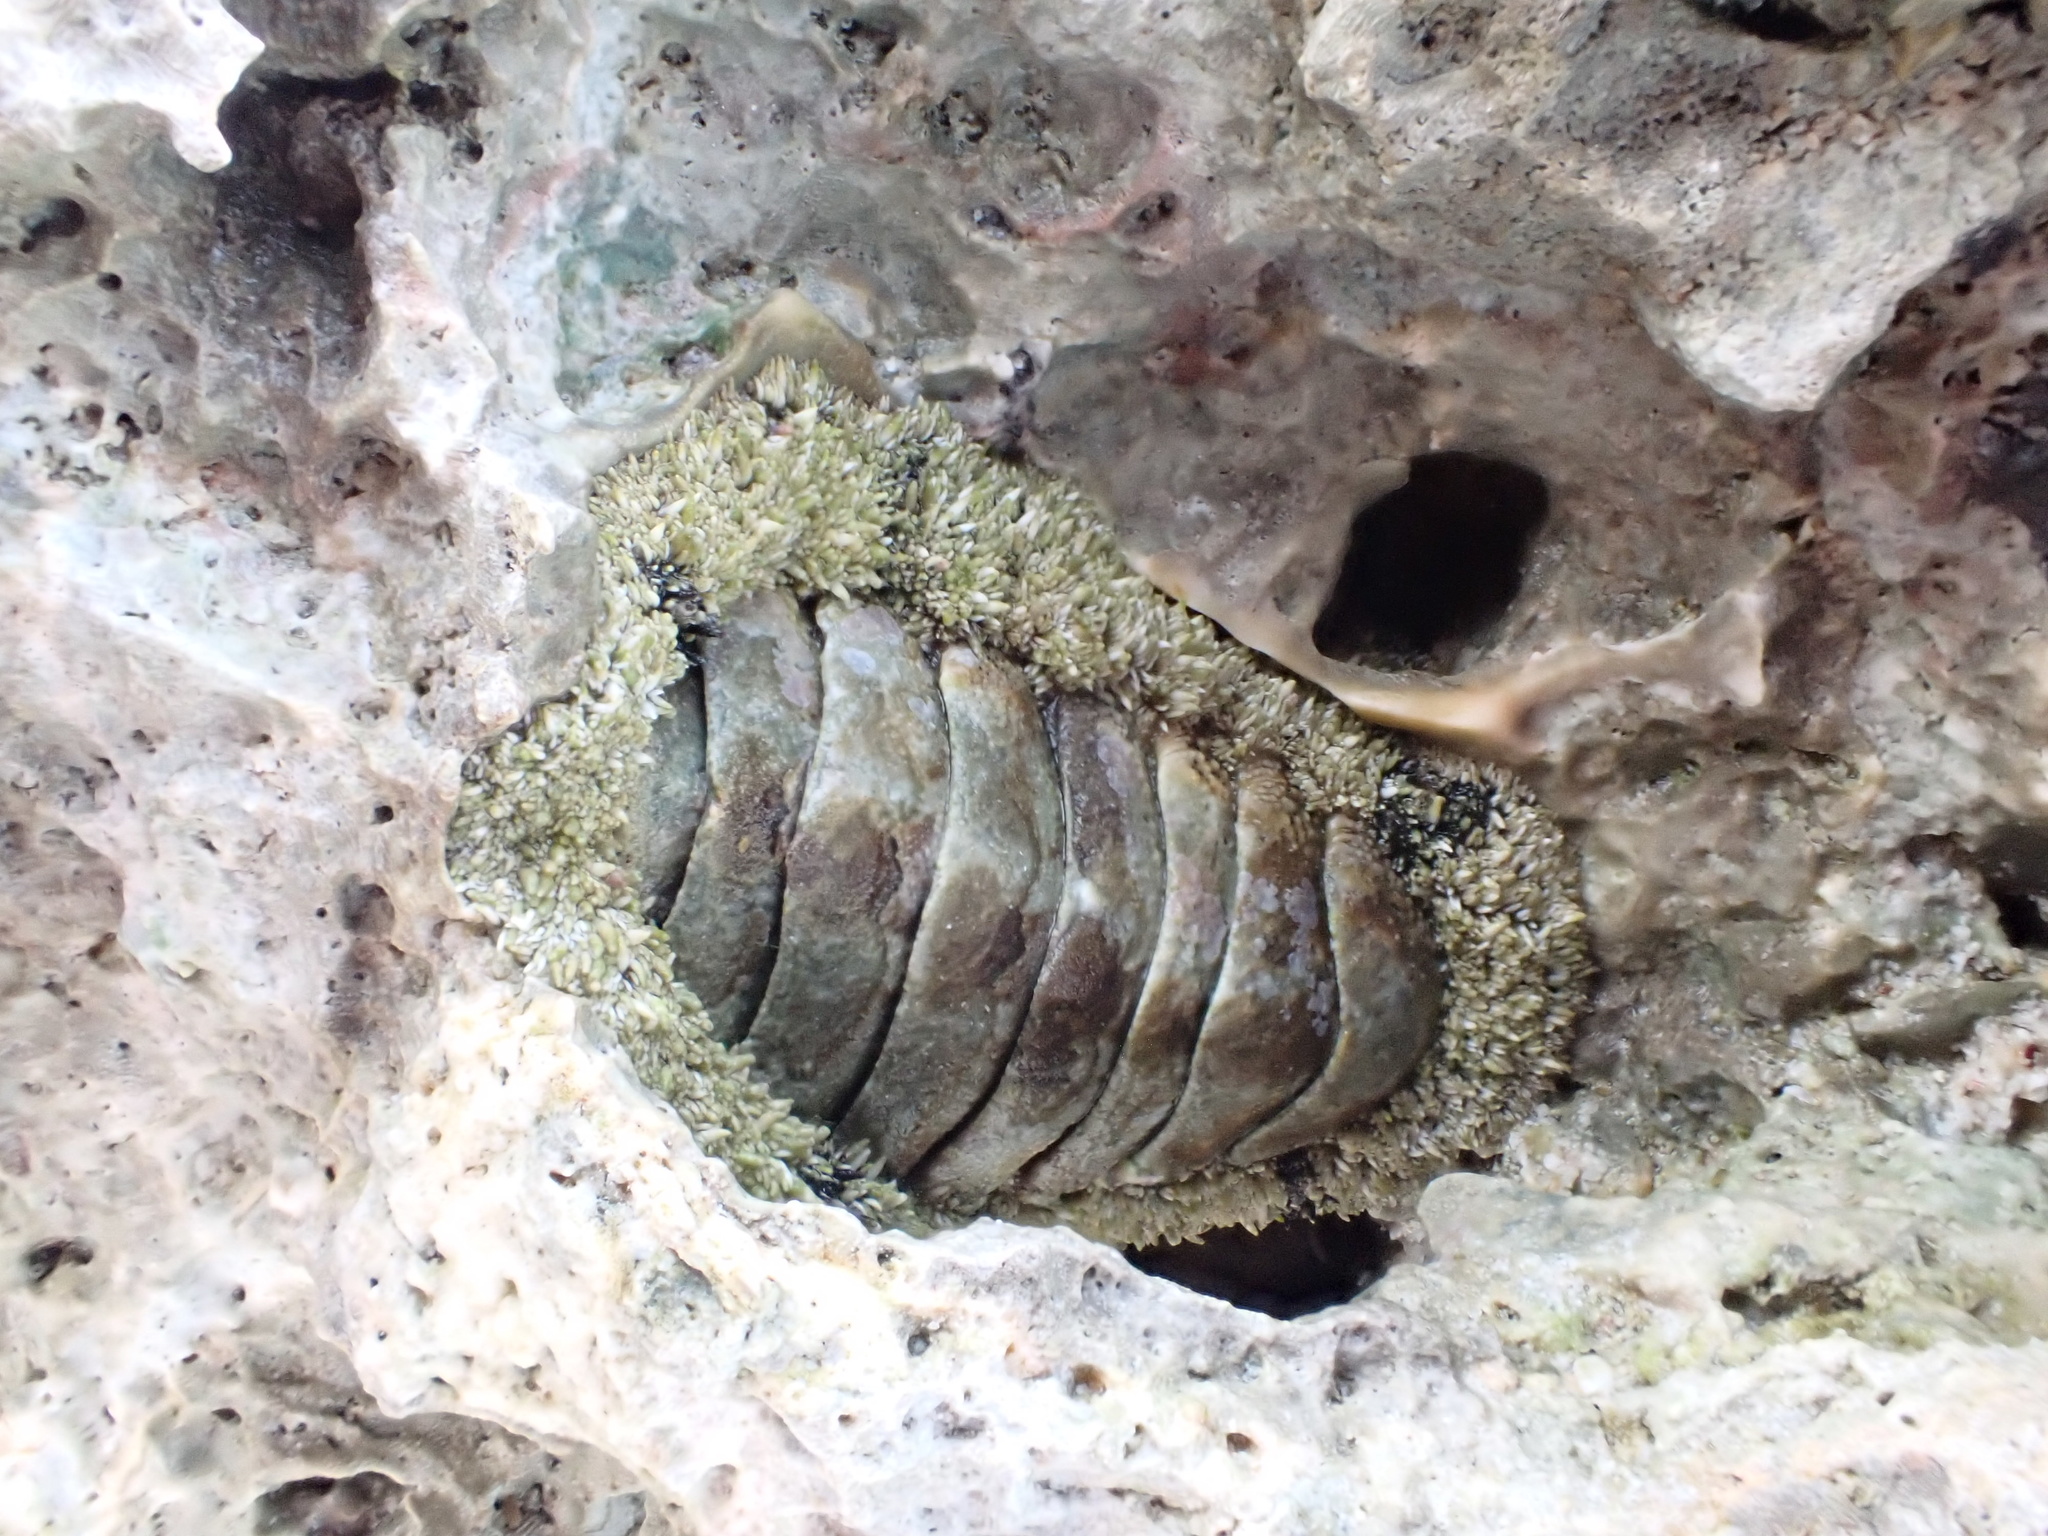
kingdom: Animalia
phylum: Mollusca
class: Polyplacophora
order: Chitonida
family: Chitonidae
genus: Acanthopleura
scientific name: Acanthopleura granulata
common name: West indian fuzzy chiton
